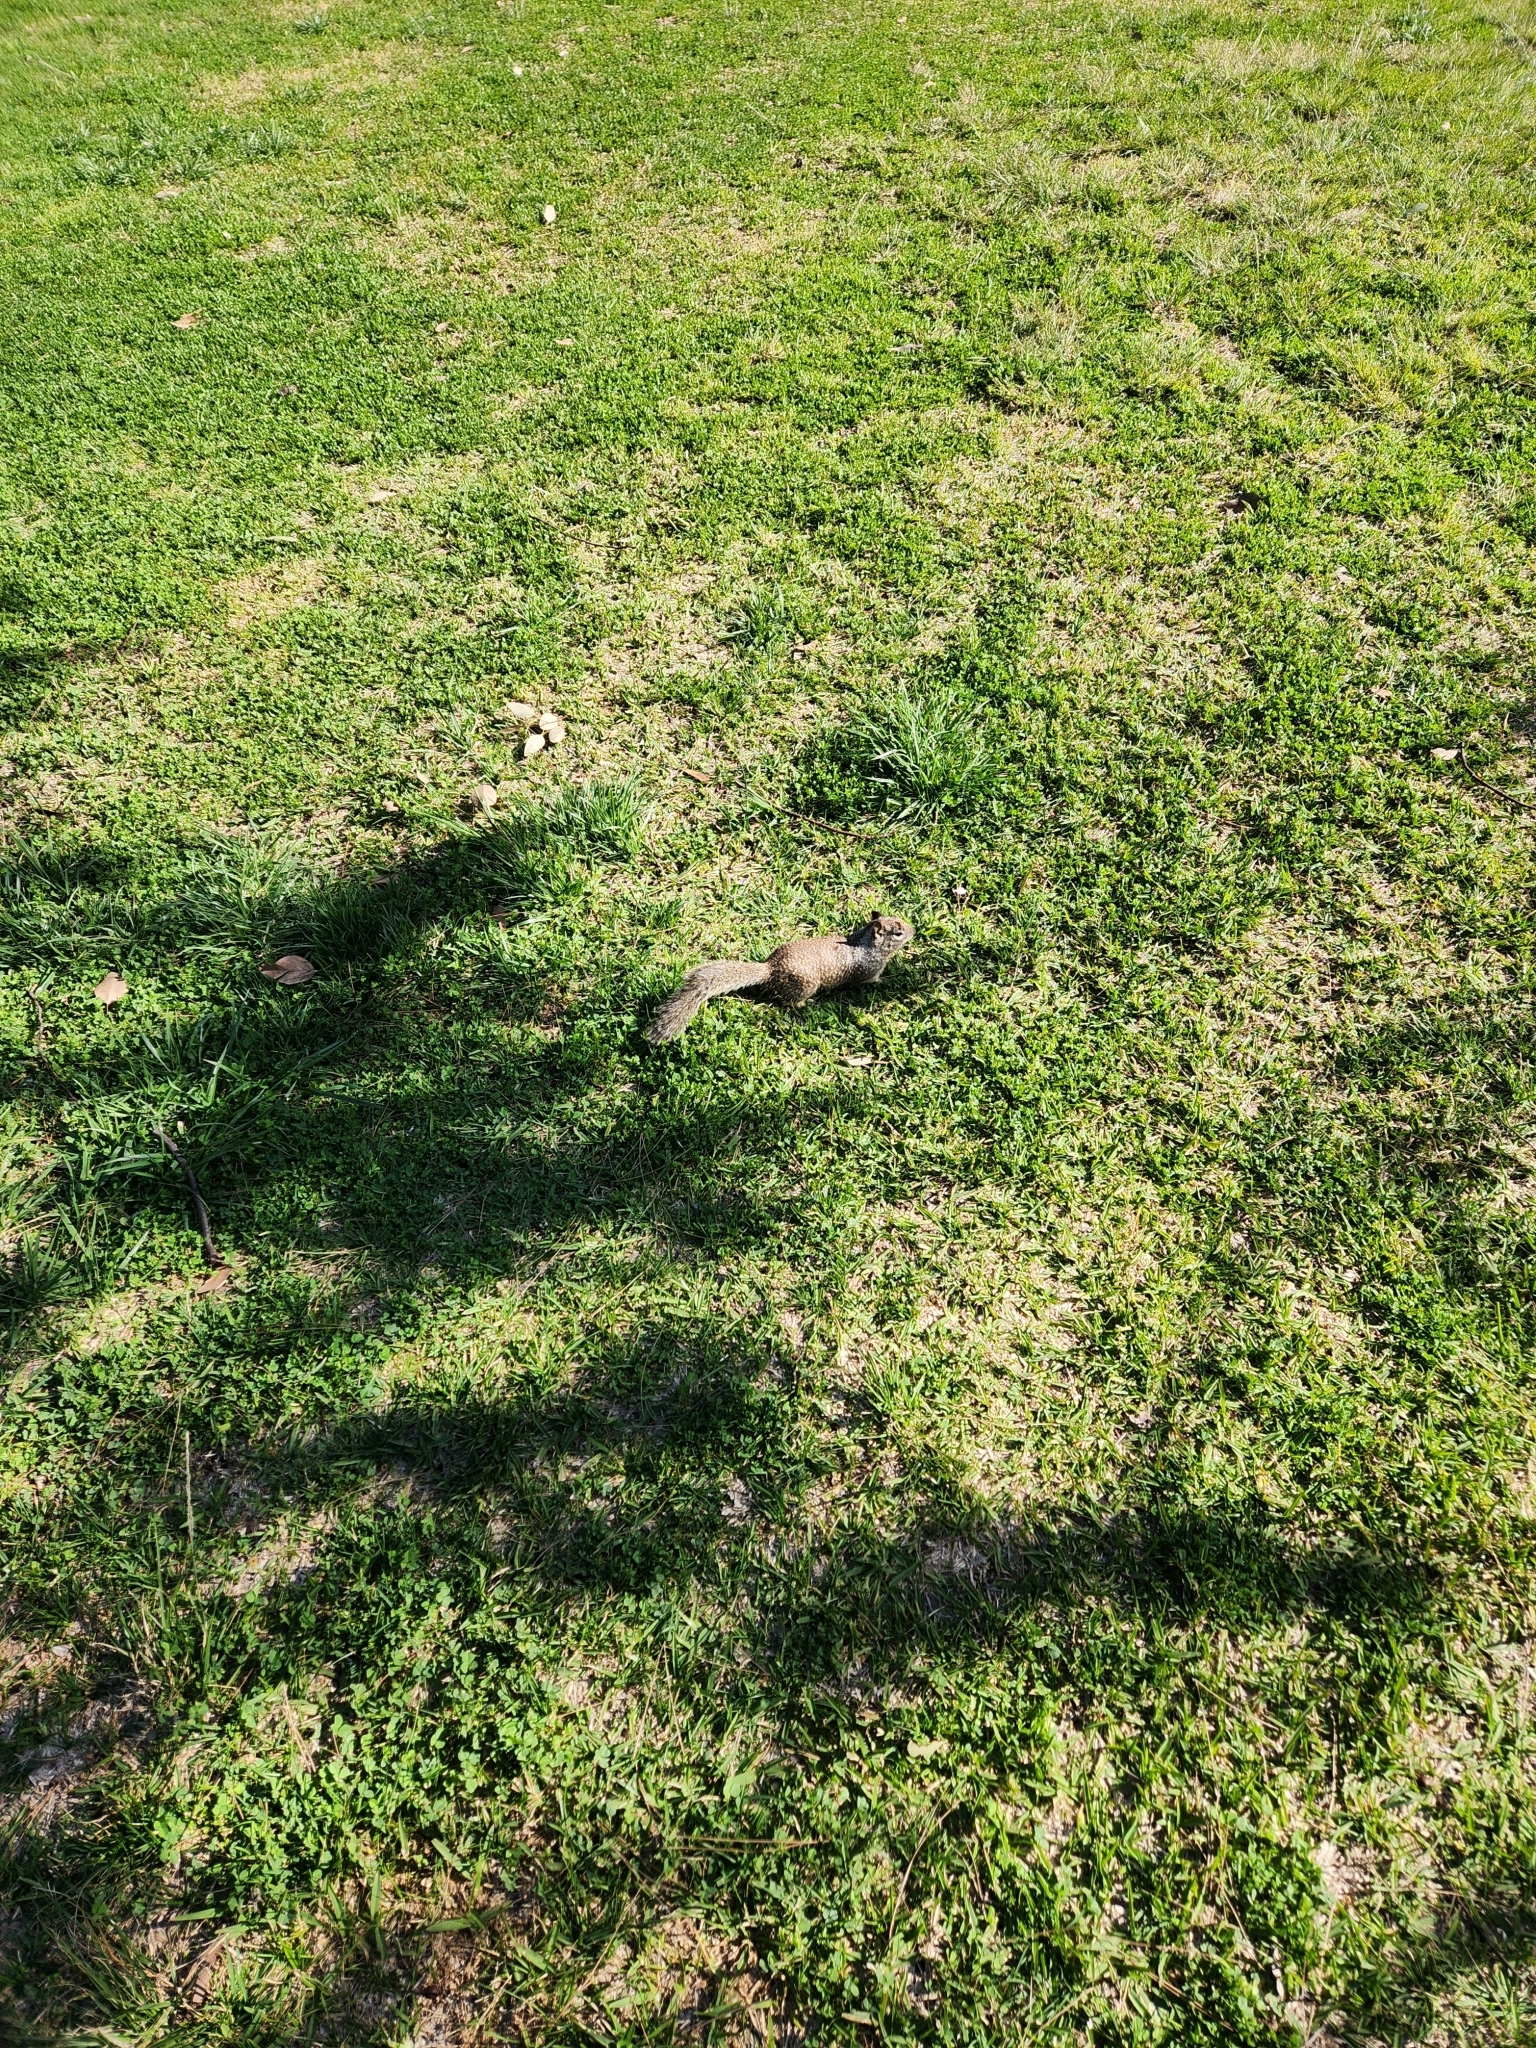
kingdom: Animalia
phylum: Chordata
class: Mammalia
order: Rodentia
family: Sciuridae
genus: Otospermophilus
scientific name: Otospermophilus beecheyi
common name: California ground squirrel
